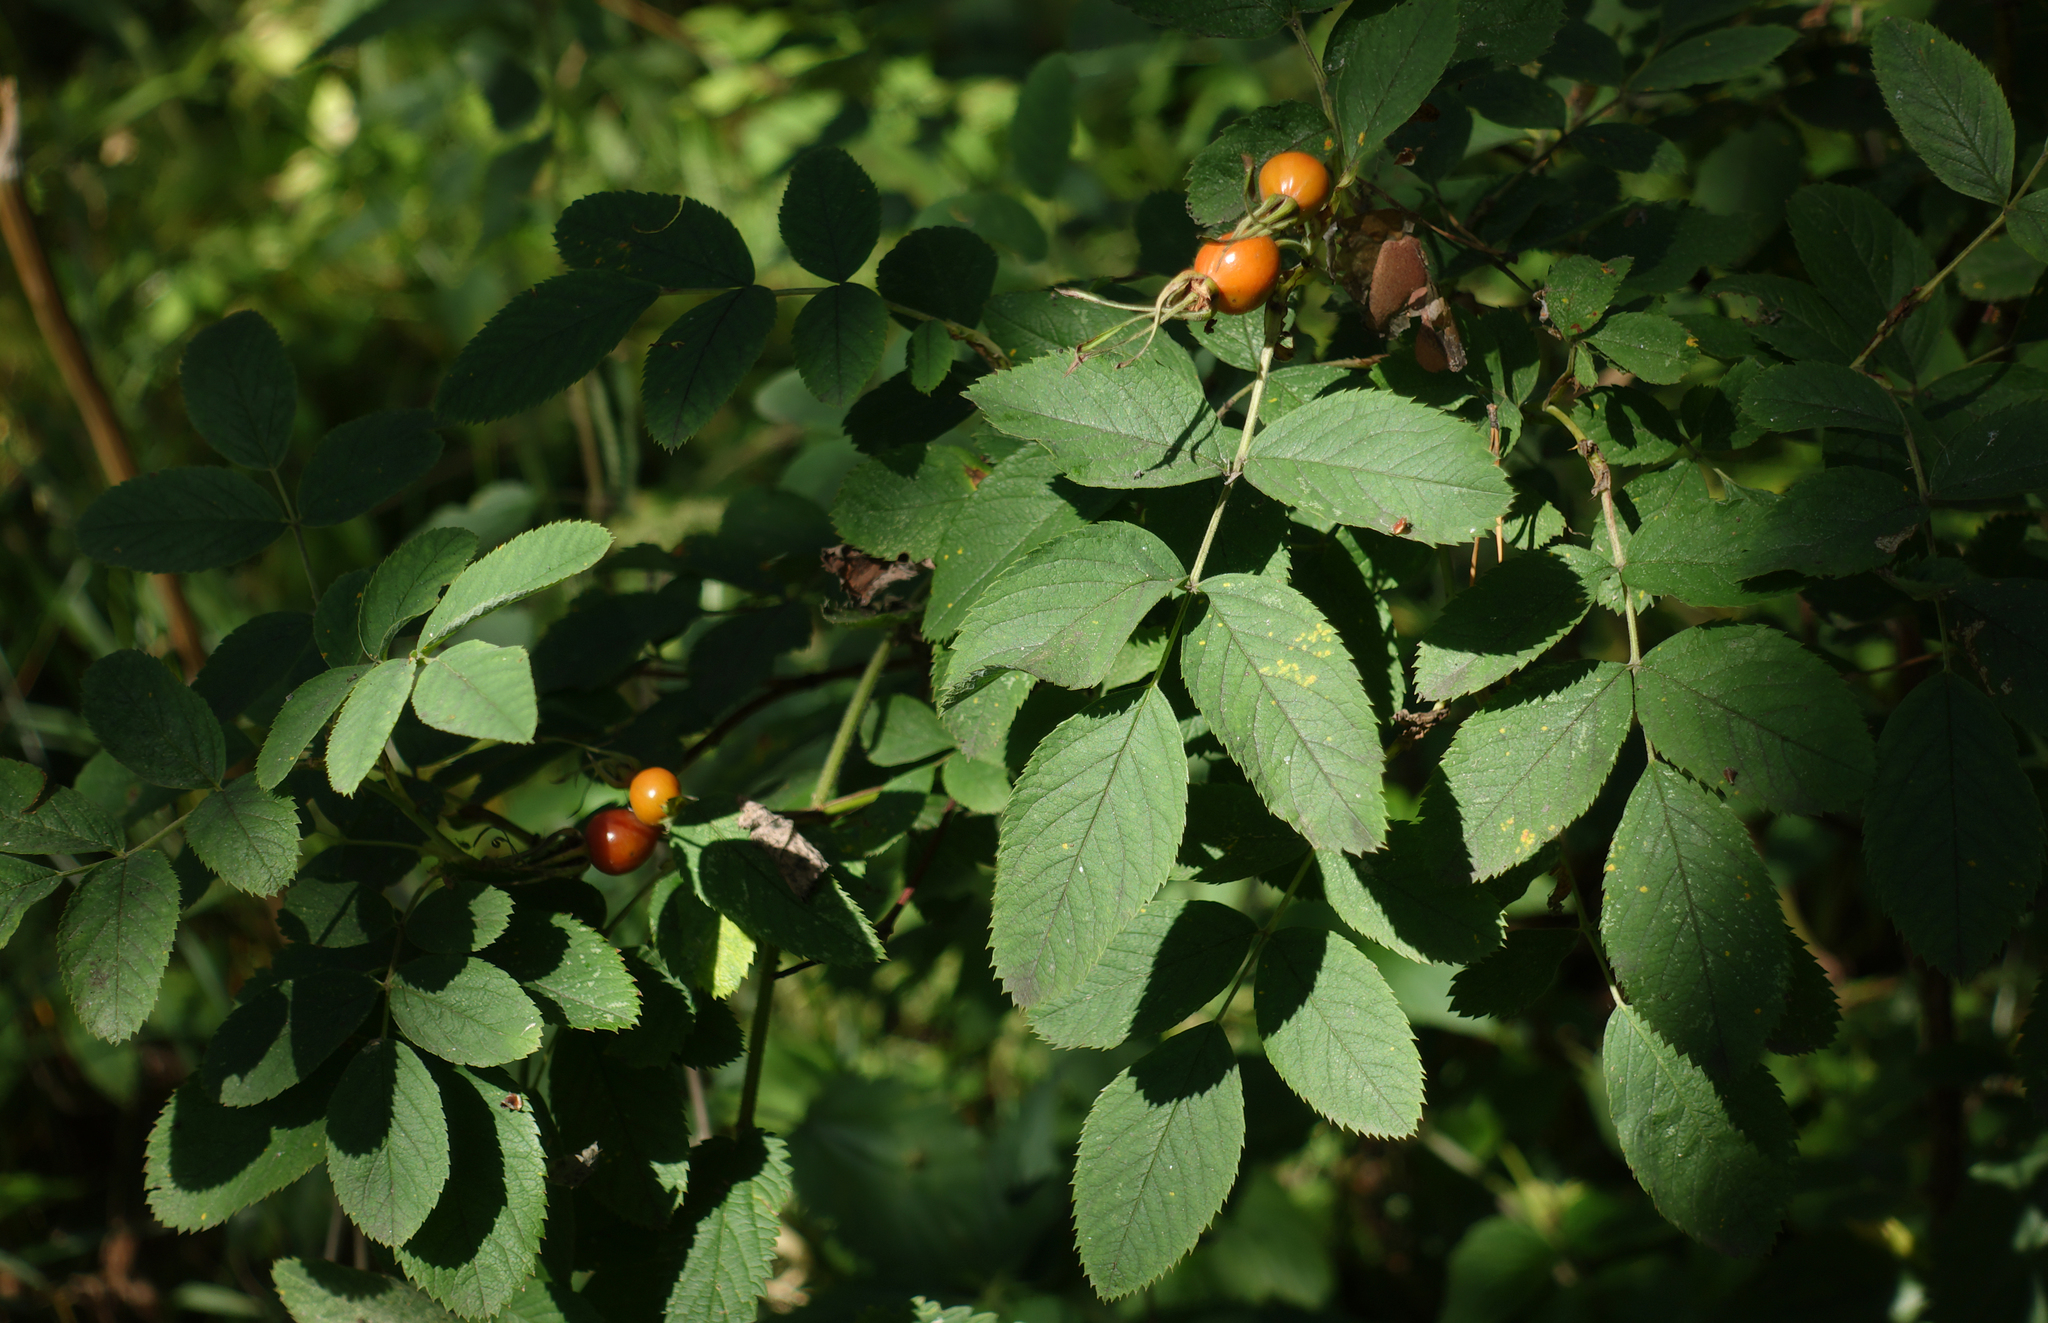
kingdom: Plantae
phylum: Tracheophyta
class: Magnoliopsida
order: Rosales
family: Rosaceae
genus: Rosa
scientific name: Rosa majalis
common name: Cinnamon rose
